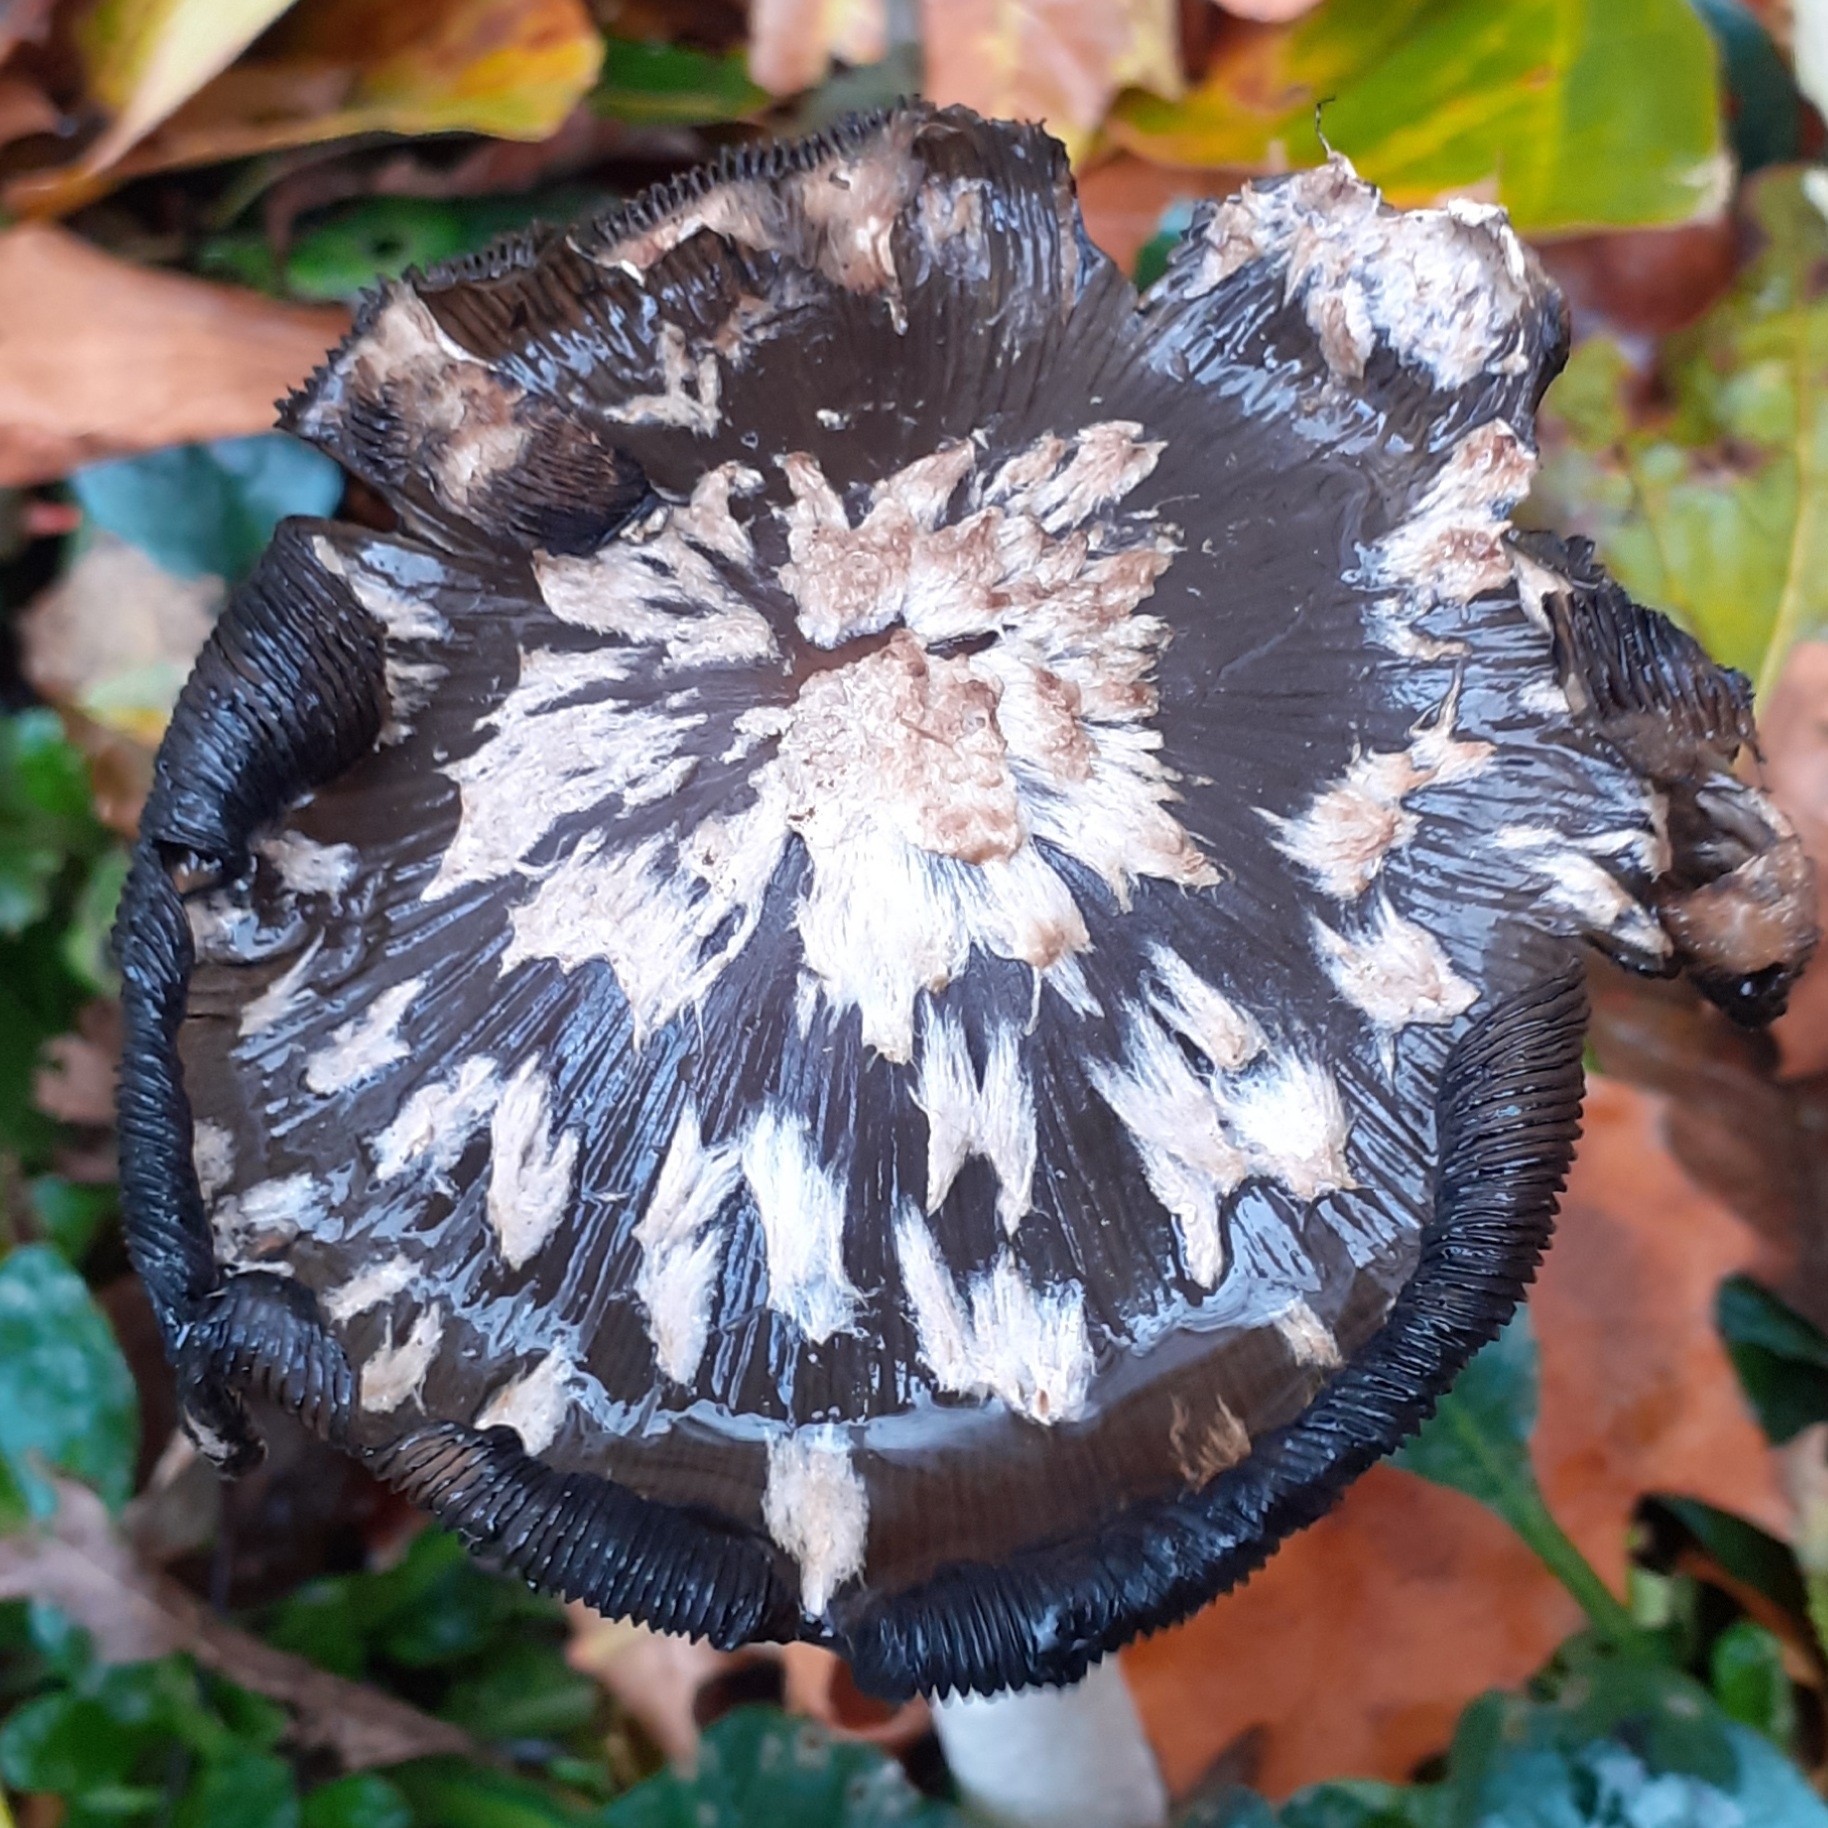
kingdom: Fungi
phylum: Basidiomycota
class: Agaricomycetes
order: Agaricales
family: Psathyrellaceae
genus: Coprinopsis
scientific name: Coprinopsis picacea
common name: Magpie inkcap
